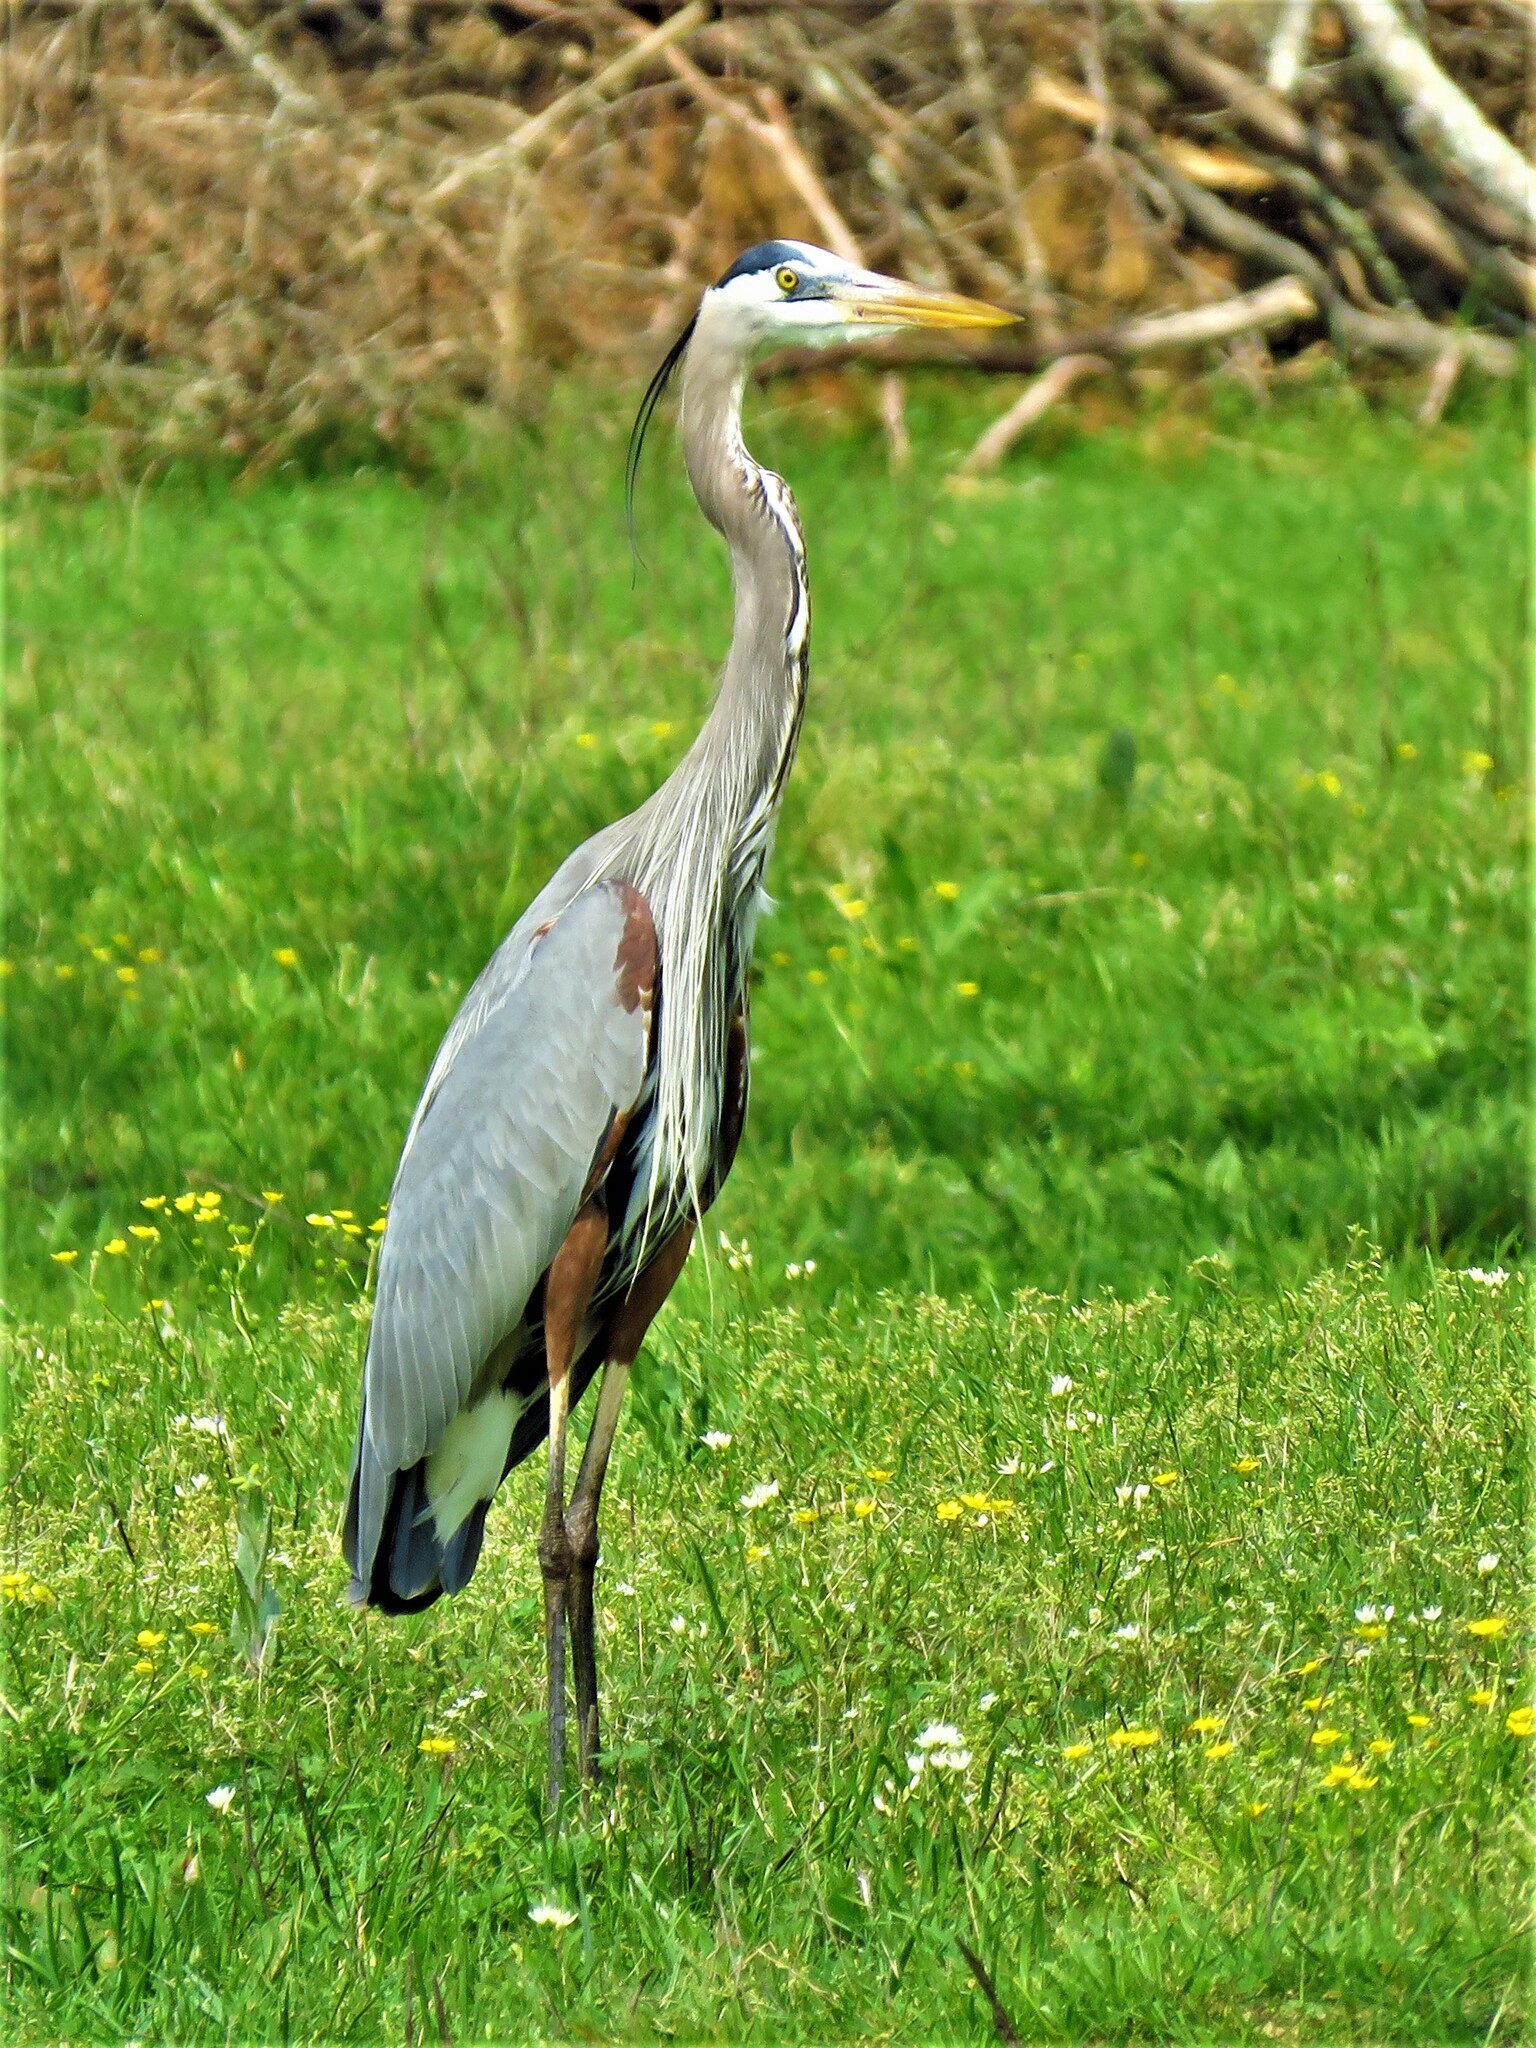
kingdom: Animalia
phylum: Chordata
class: Aves
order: Pelecaniformes
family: Ardeidae
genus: Ardea
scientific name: Ardea herodias
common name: Great blue heron
